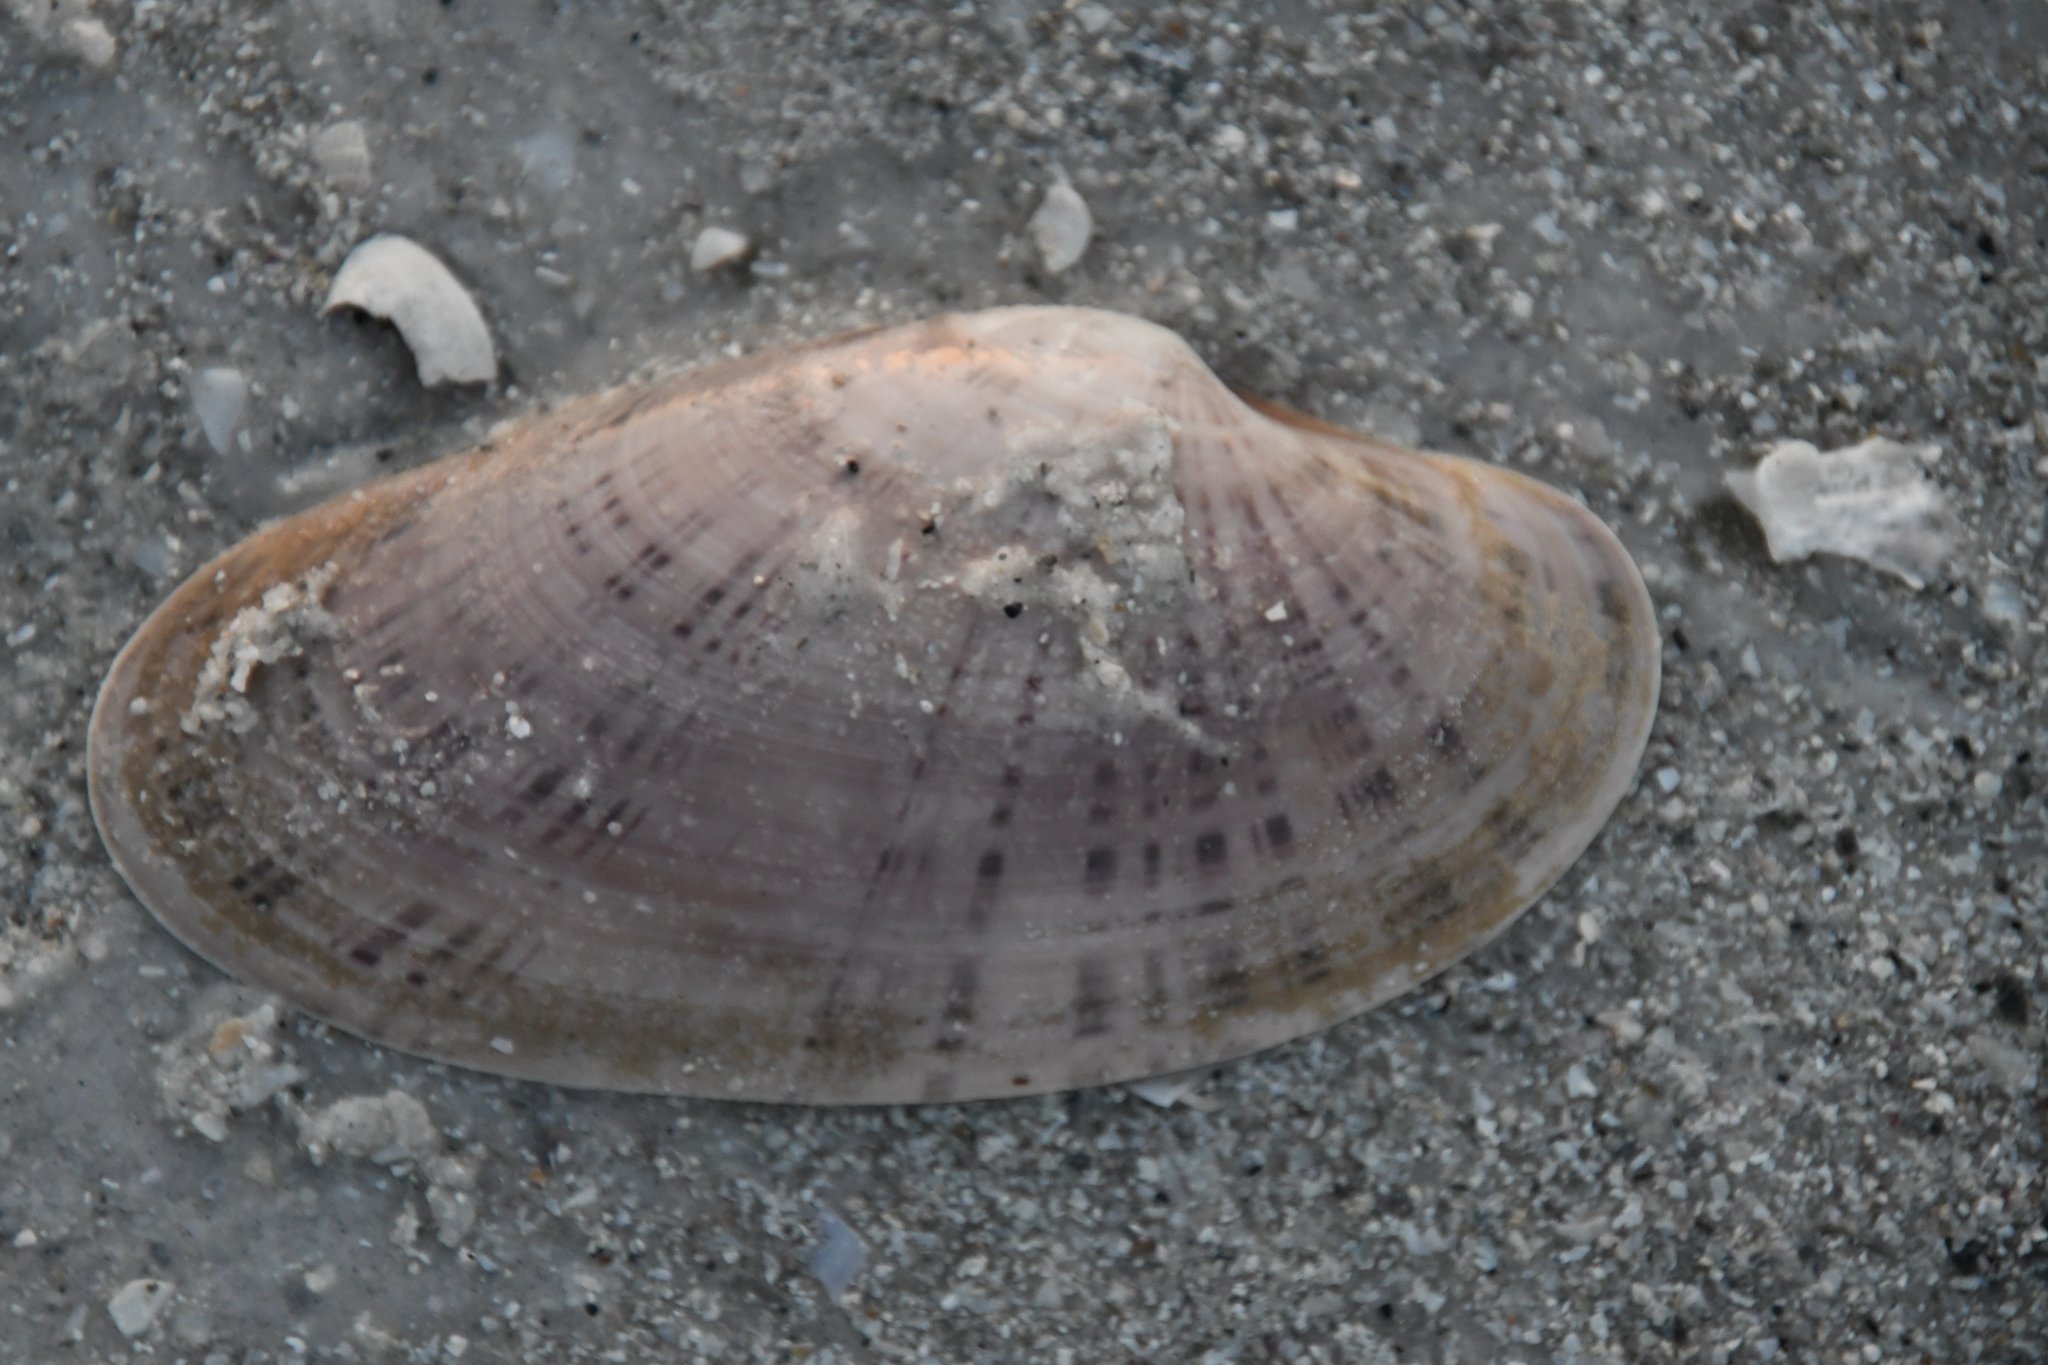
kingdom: Animalia
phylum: Mollusca
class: Bivalvia
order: Venerida
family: Veneridae
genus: Macrocallista
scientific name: Macrocallista nimbosa
